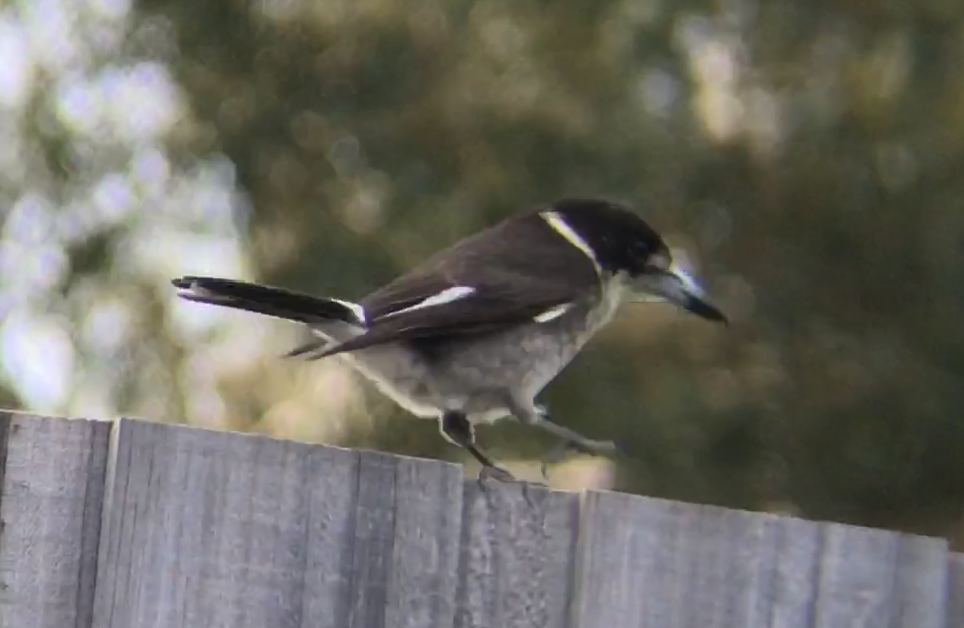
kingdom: Animalia
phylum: Chordata
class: Aves
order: Passeriformes
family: Cracticidae
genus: Cracticus
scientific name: Cracticus torquatus
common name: Grey butcherbird
